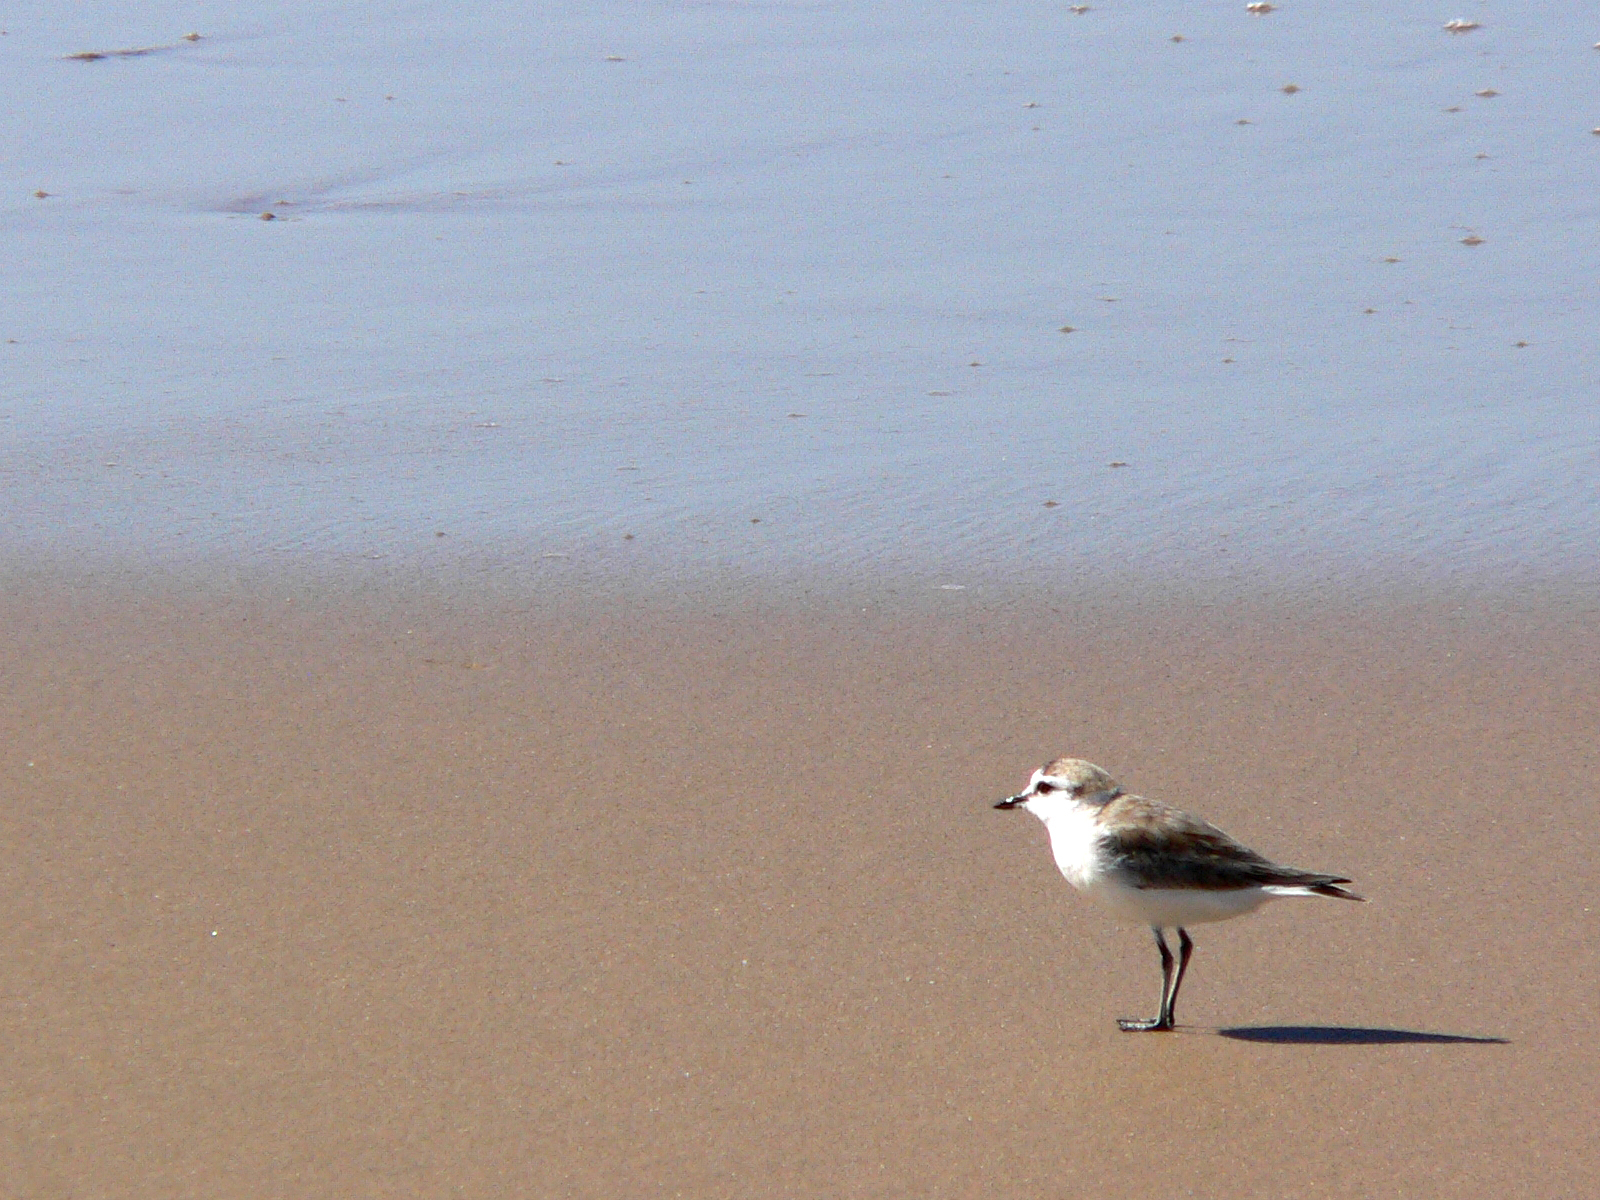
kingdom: Animalia
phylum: Chordata
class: Aves
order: Charadriiformes
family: Charadriidae
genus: Anarhynchus
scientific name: Anarhynchus
